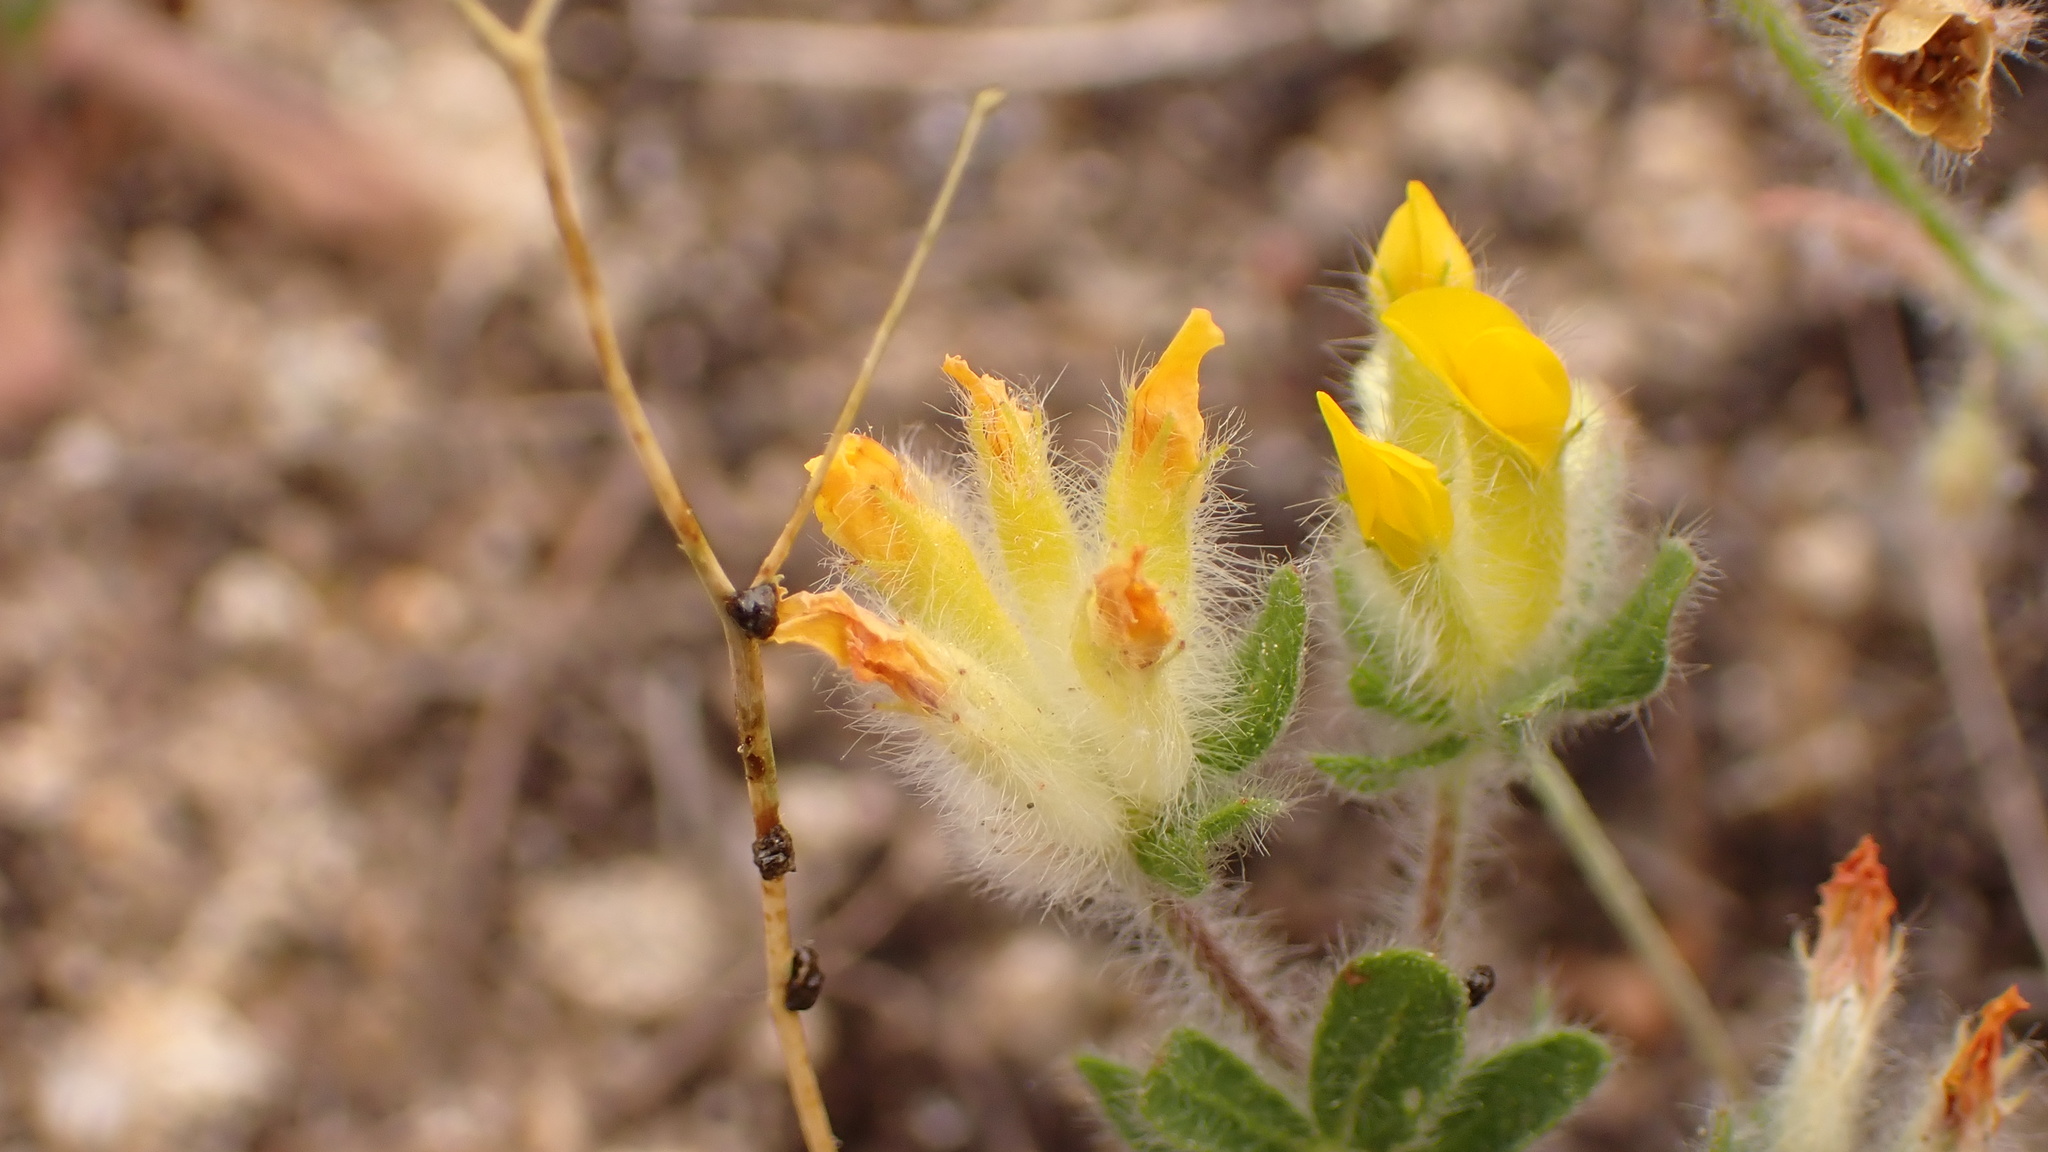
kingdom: Plantae
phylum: Tracheophyta
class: Magnoliopsida
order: Fabales
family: Fabaceae
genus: Anthyllis
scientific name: Anthyllis lotoides
